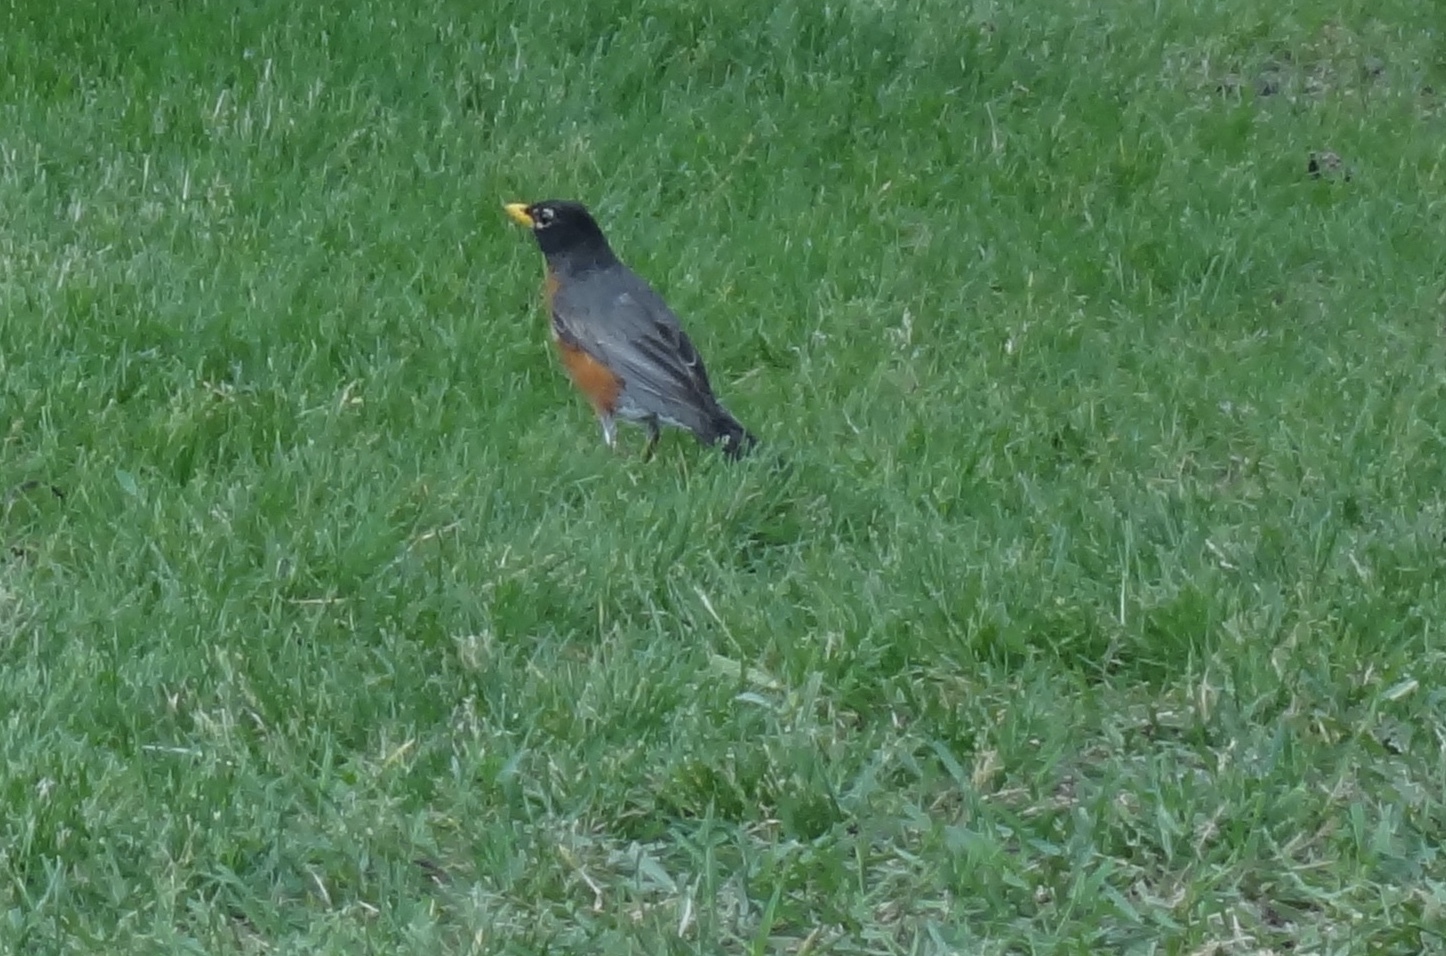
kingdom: Animalia
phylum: Chordata
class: Aves
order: Passeriformes
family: Turdidae
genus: Turdus
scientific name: Turdus migratorius
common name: American robin
